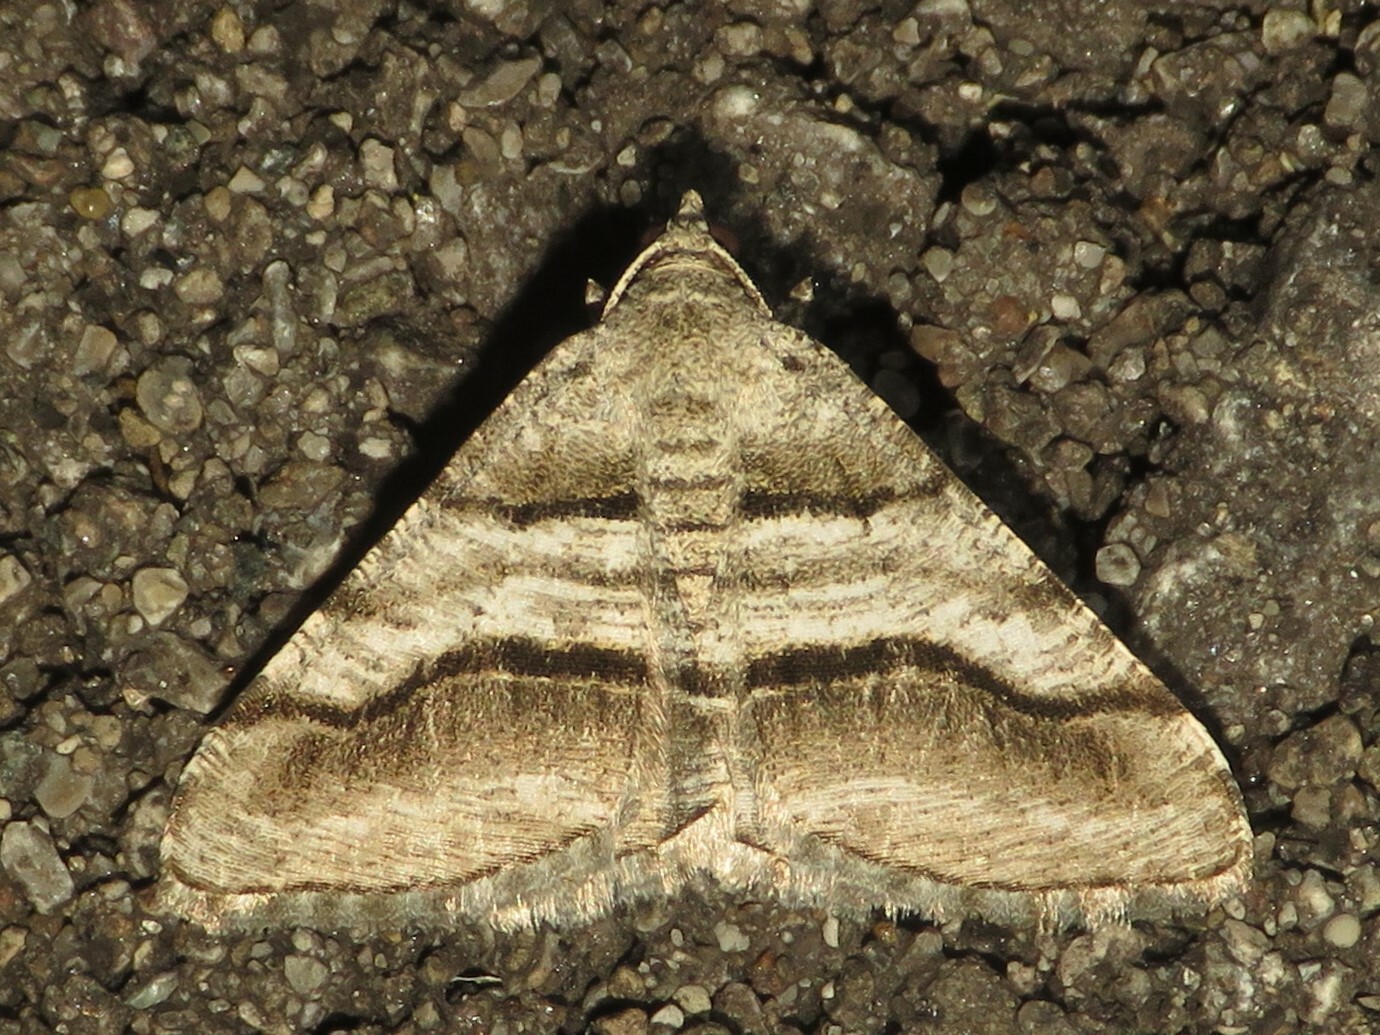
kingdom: Animalia
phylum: Arthropoda
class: Insecta
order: Lepidoptera
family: Geometridae
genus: Digrammia
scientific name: Digrammia continuata
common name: Curve-lined angle
